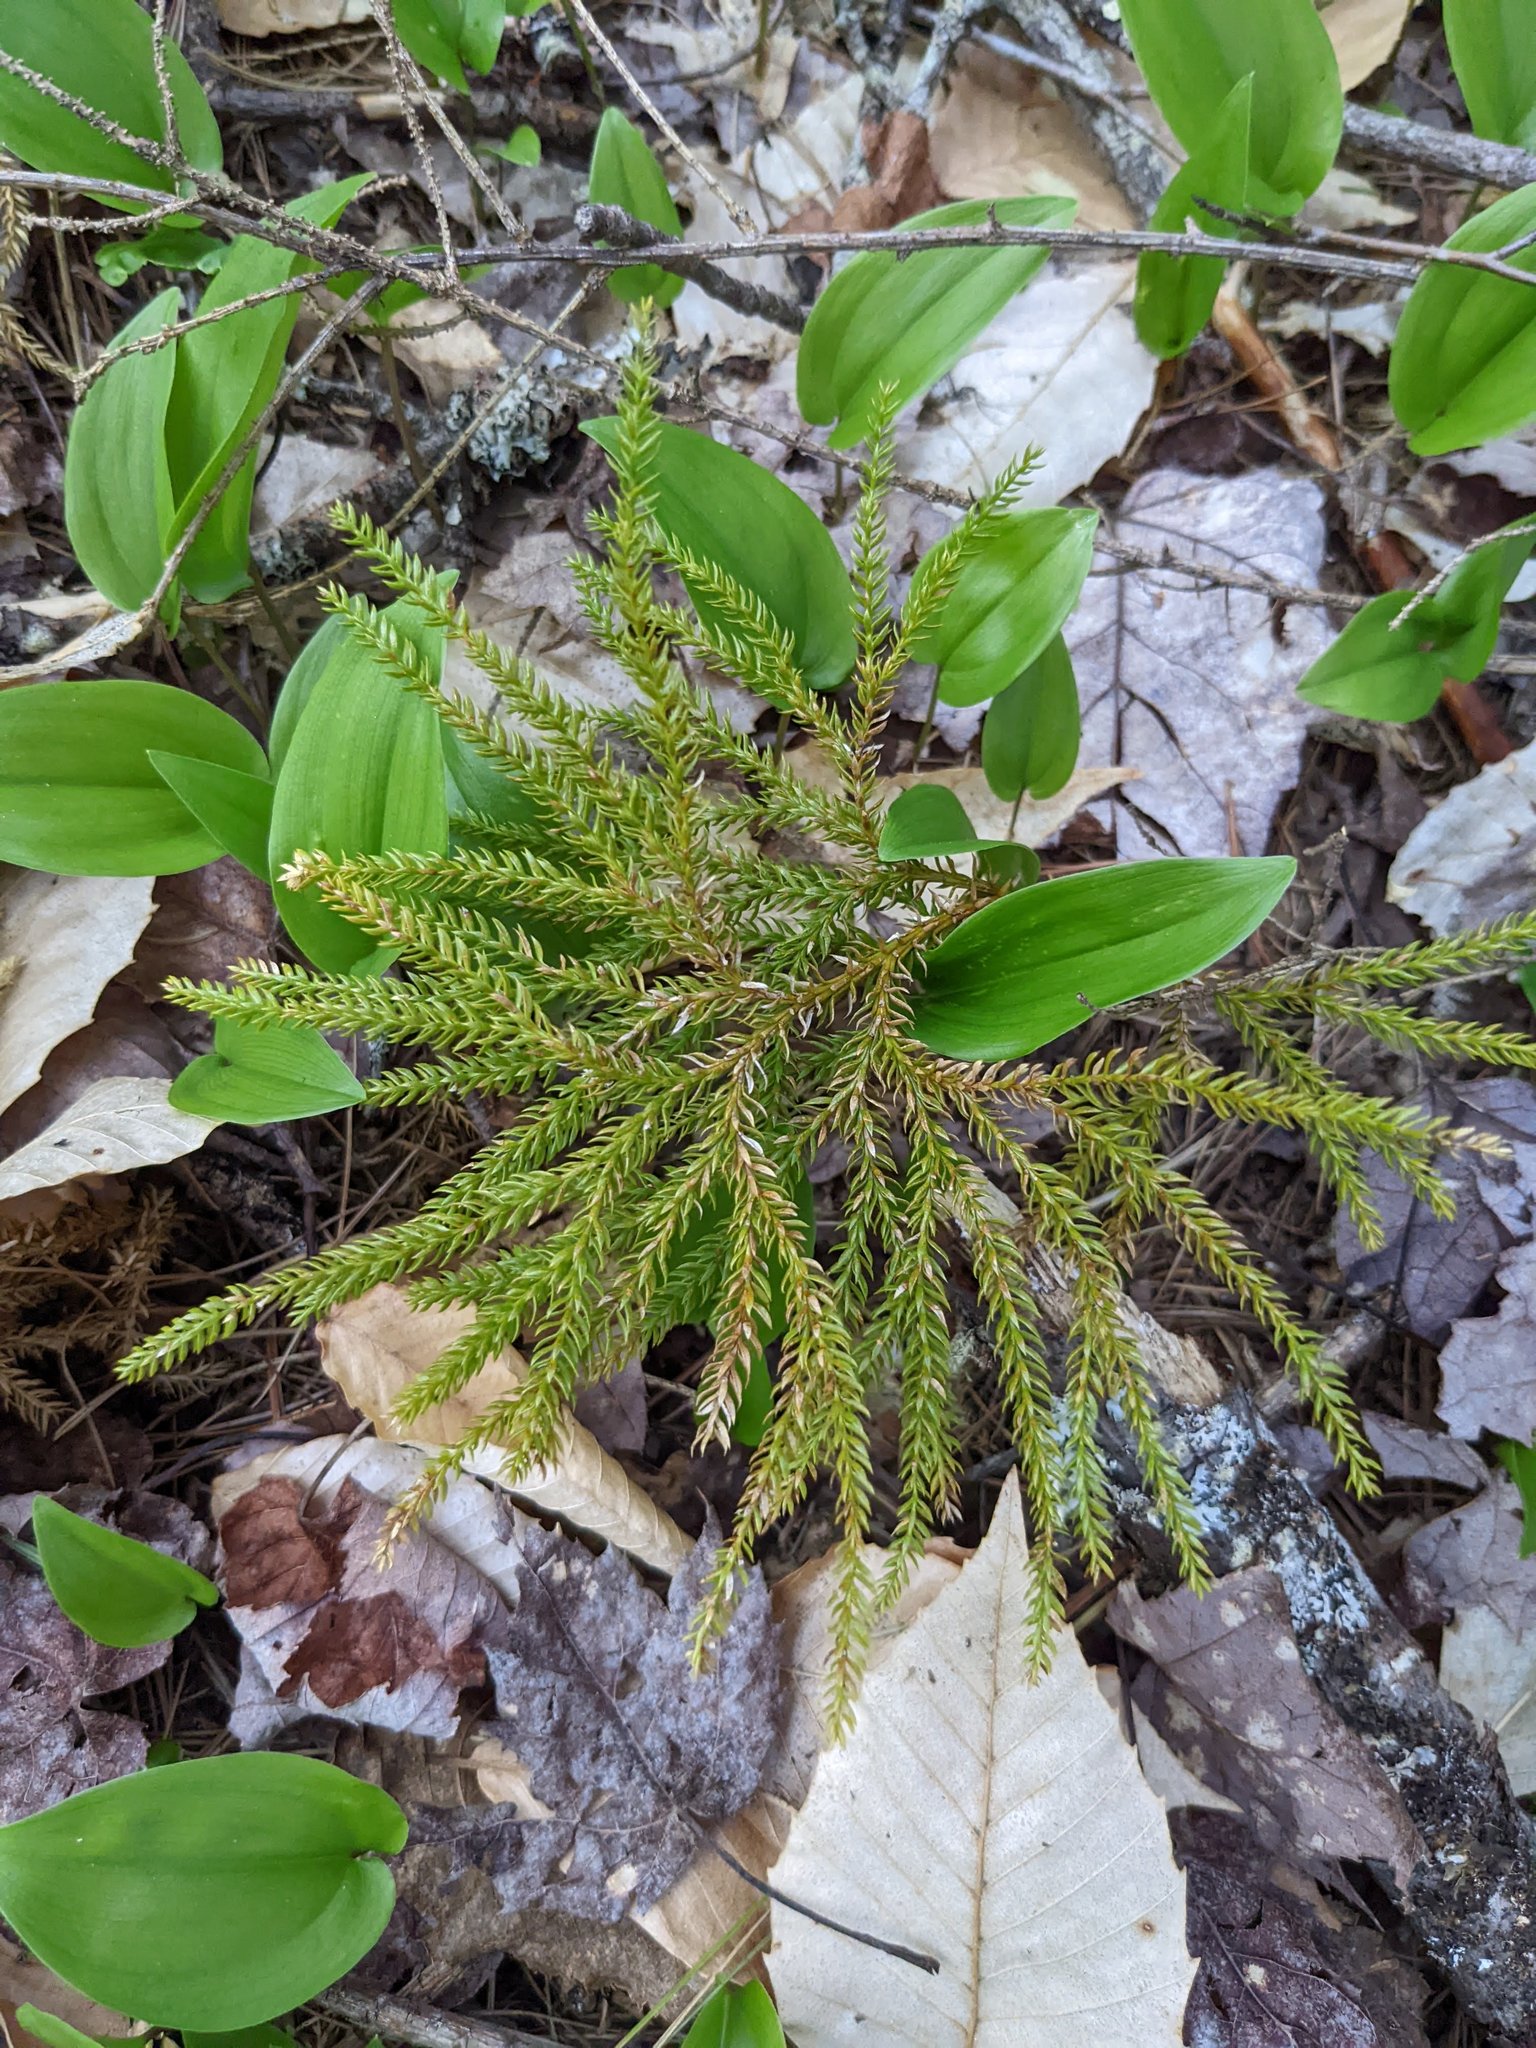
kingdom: Plantae
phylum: Tracheophyta
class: Liliopsida
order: Asparagales
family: Asparagaceae
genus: Maianthemum
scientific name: Maianthemum canadense
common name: False lily-of-the-valley
